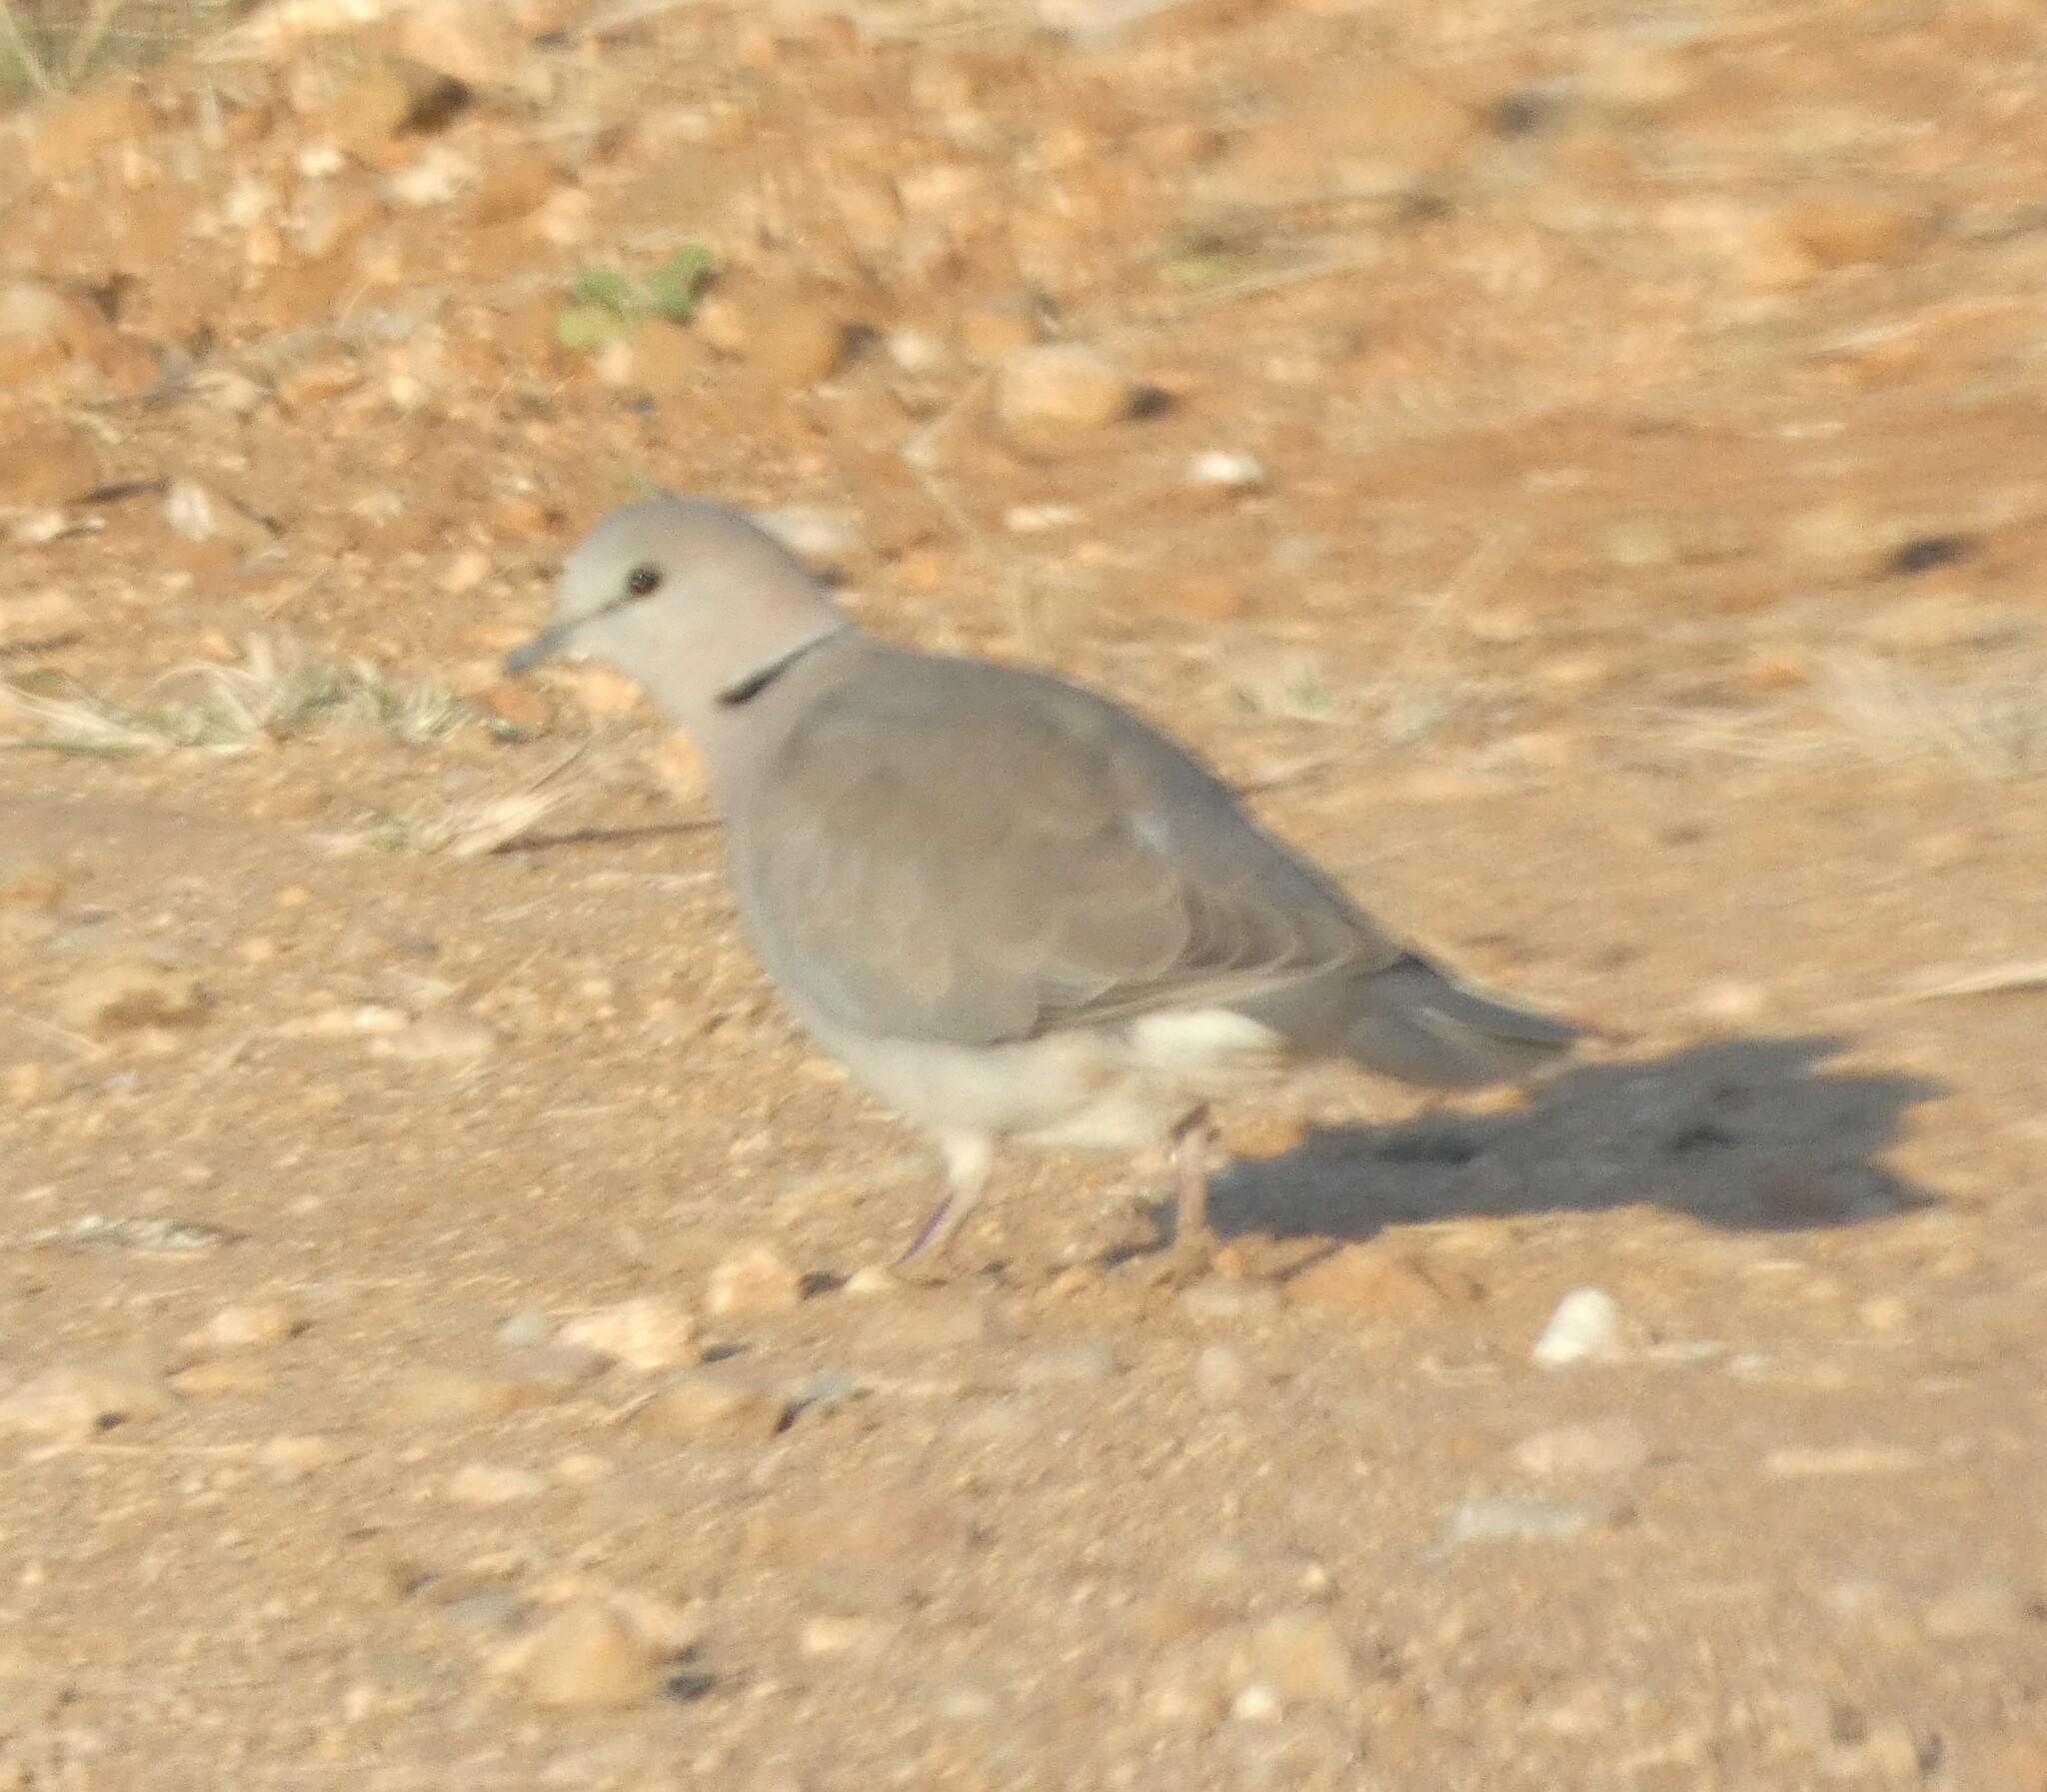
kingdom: Animalia
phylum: Chordata
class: Aves
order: Columbiformes
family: Columbidae
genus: Streptopelia
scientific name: Streptopelia capicola
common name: Ring-necked dove
